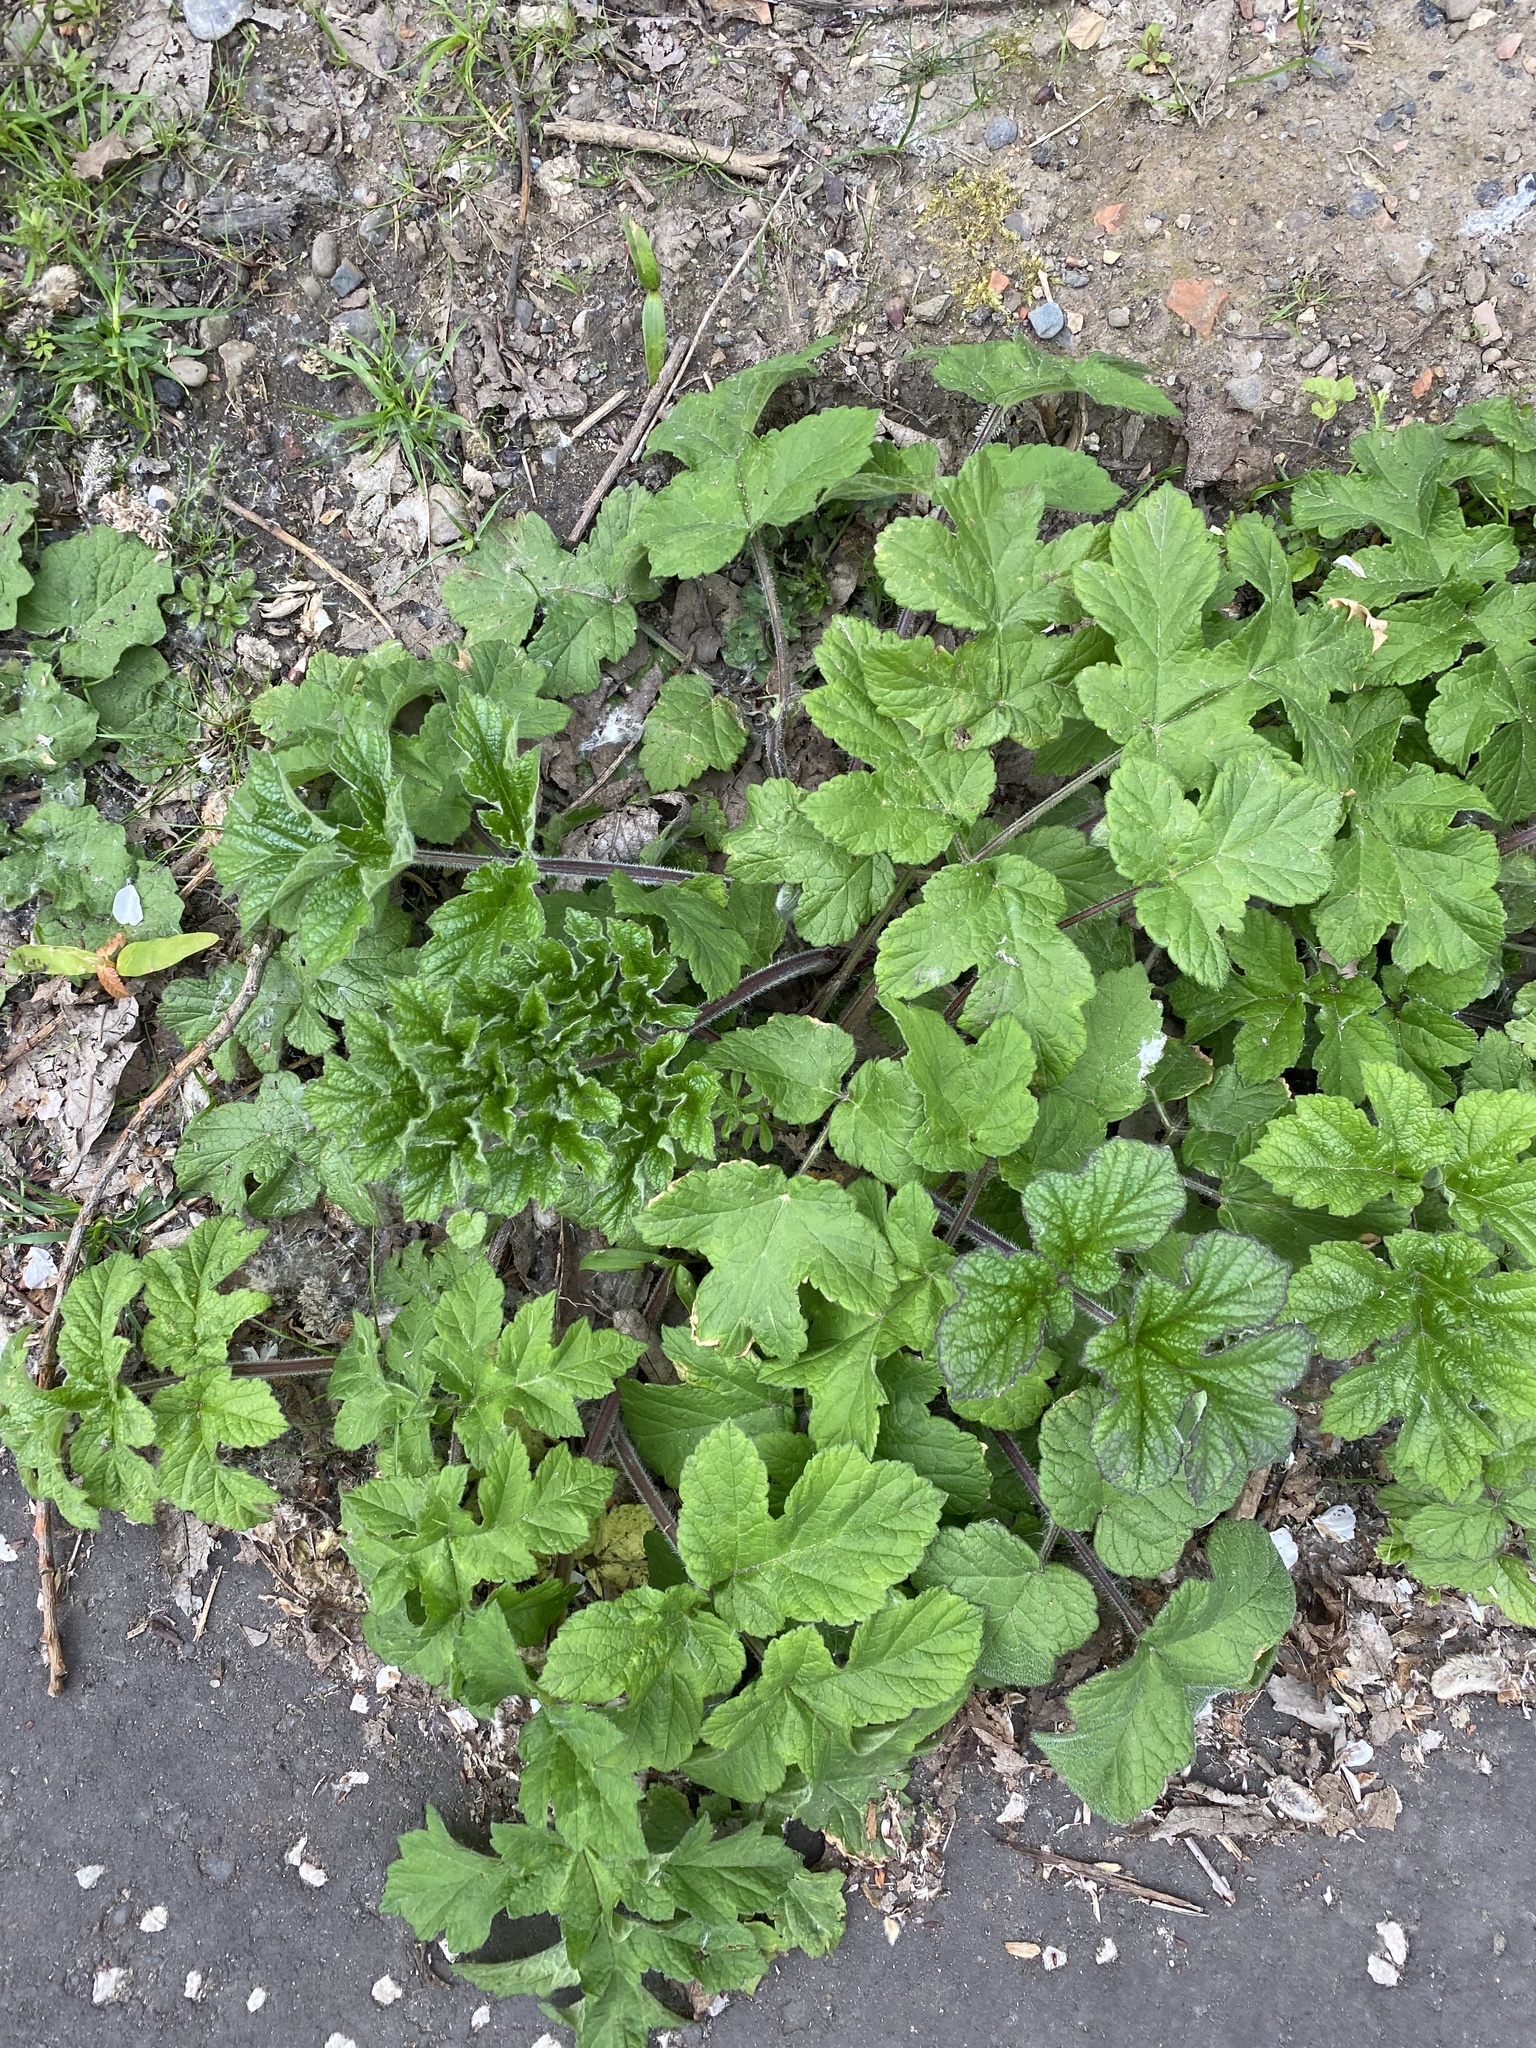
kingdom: Plantae
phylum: Tracheophyta
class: Magnoliopsida
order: Apiales
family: Apiaceae
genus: Heracleum
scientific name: Heracleum sphondylium
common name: Hogweed
